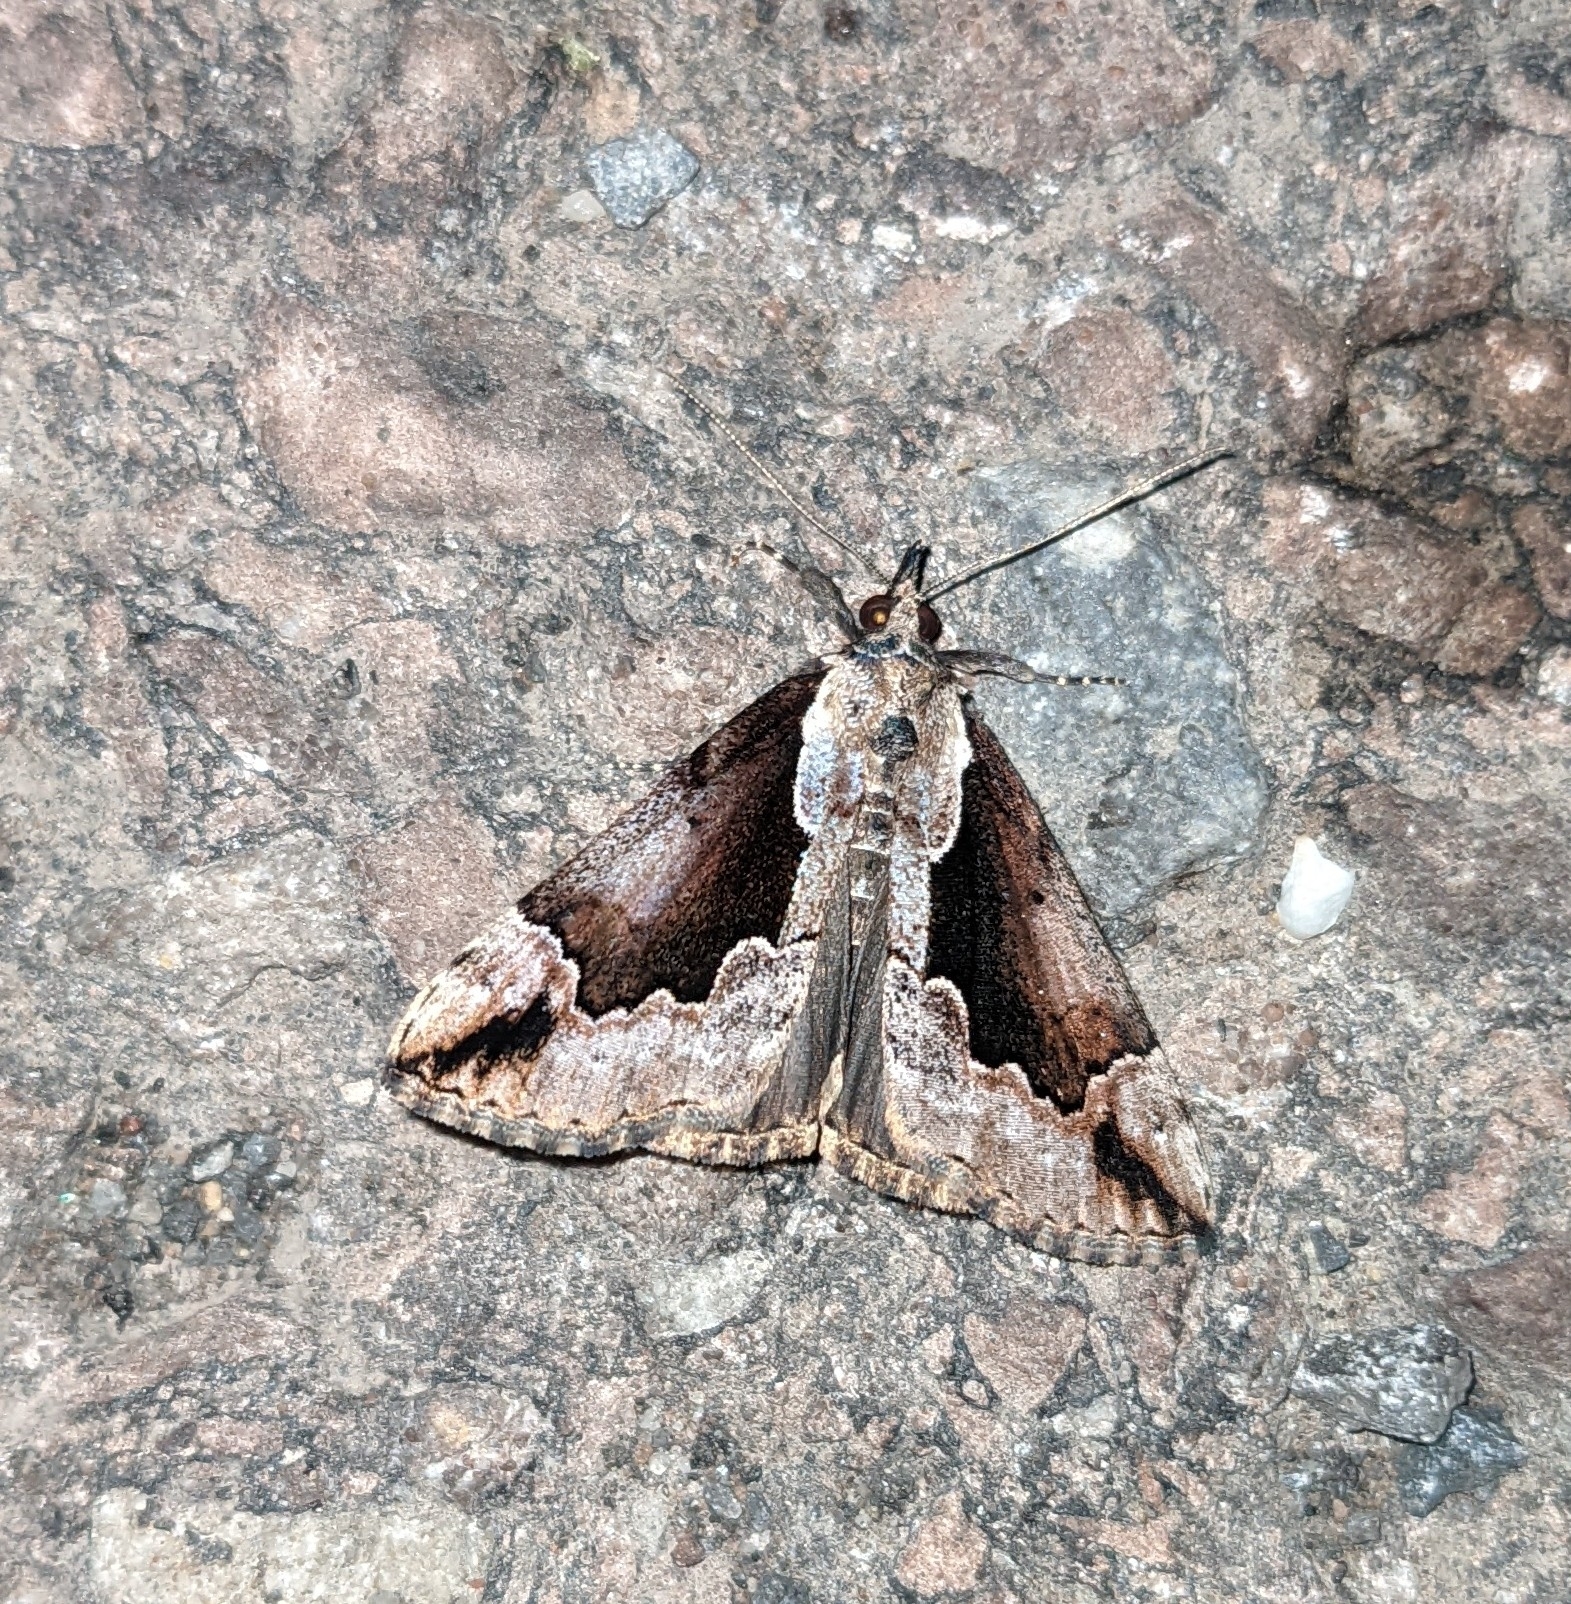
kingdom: Animalia
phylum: Arthropoda
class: Insecta
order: Lepidoptera
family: Erebidae
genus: Hypena
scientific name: Hypena baltimoralis
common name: Baltimore snout
